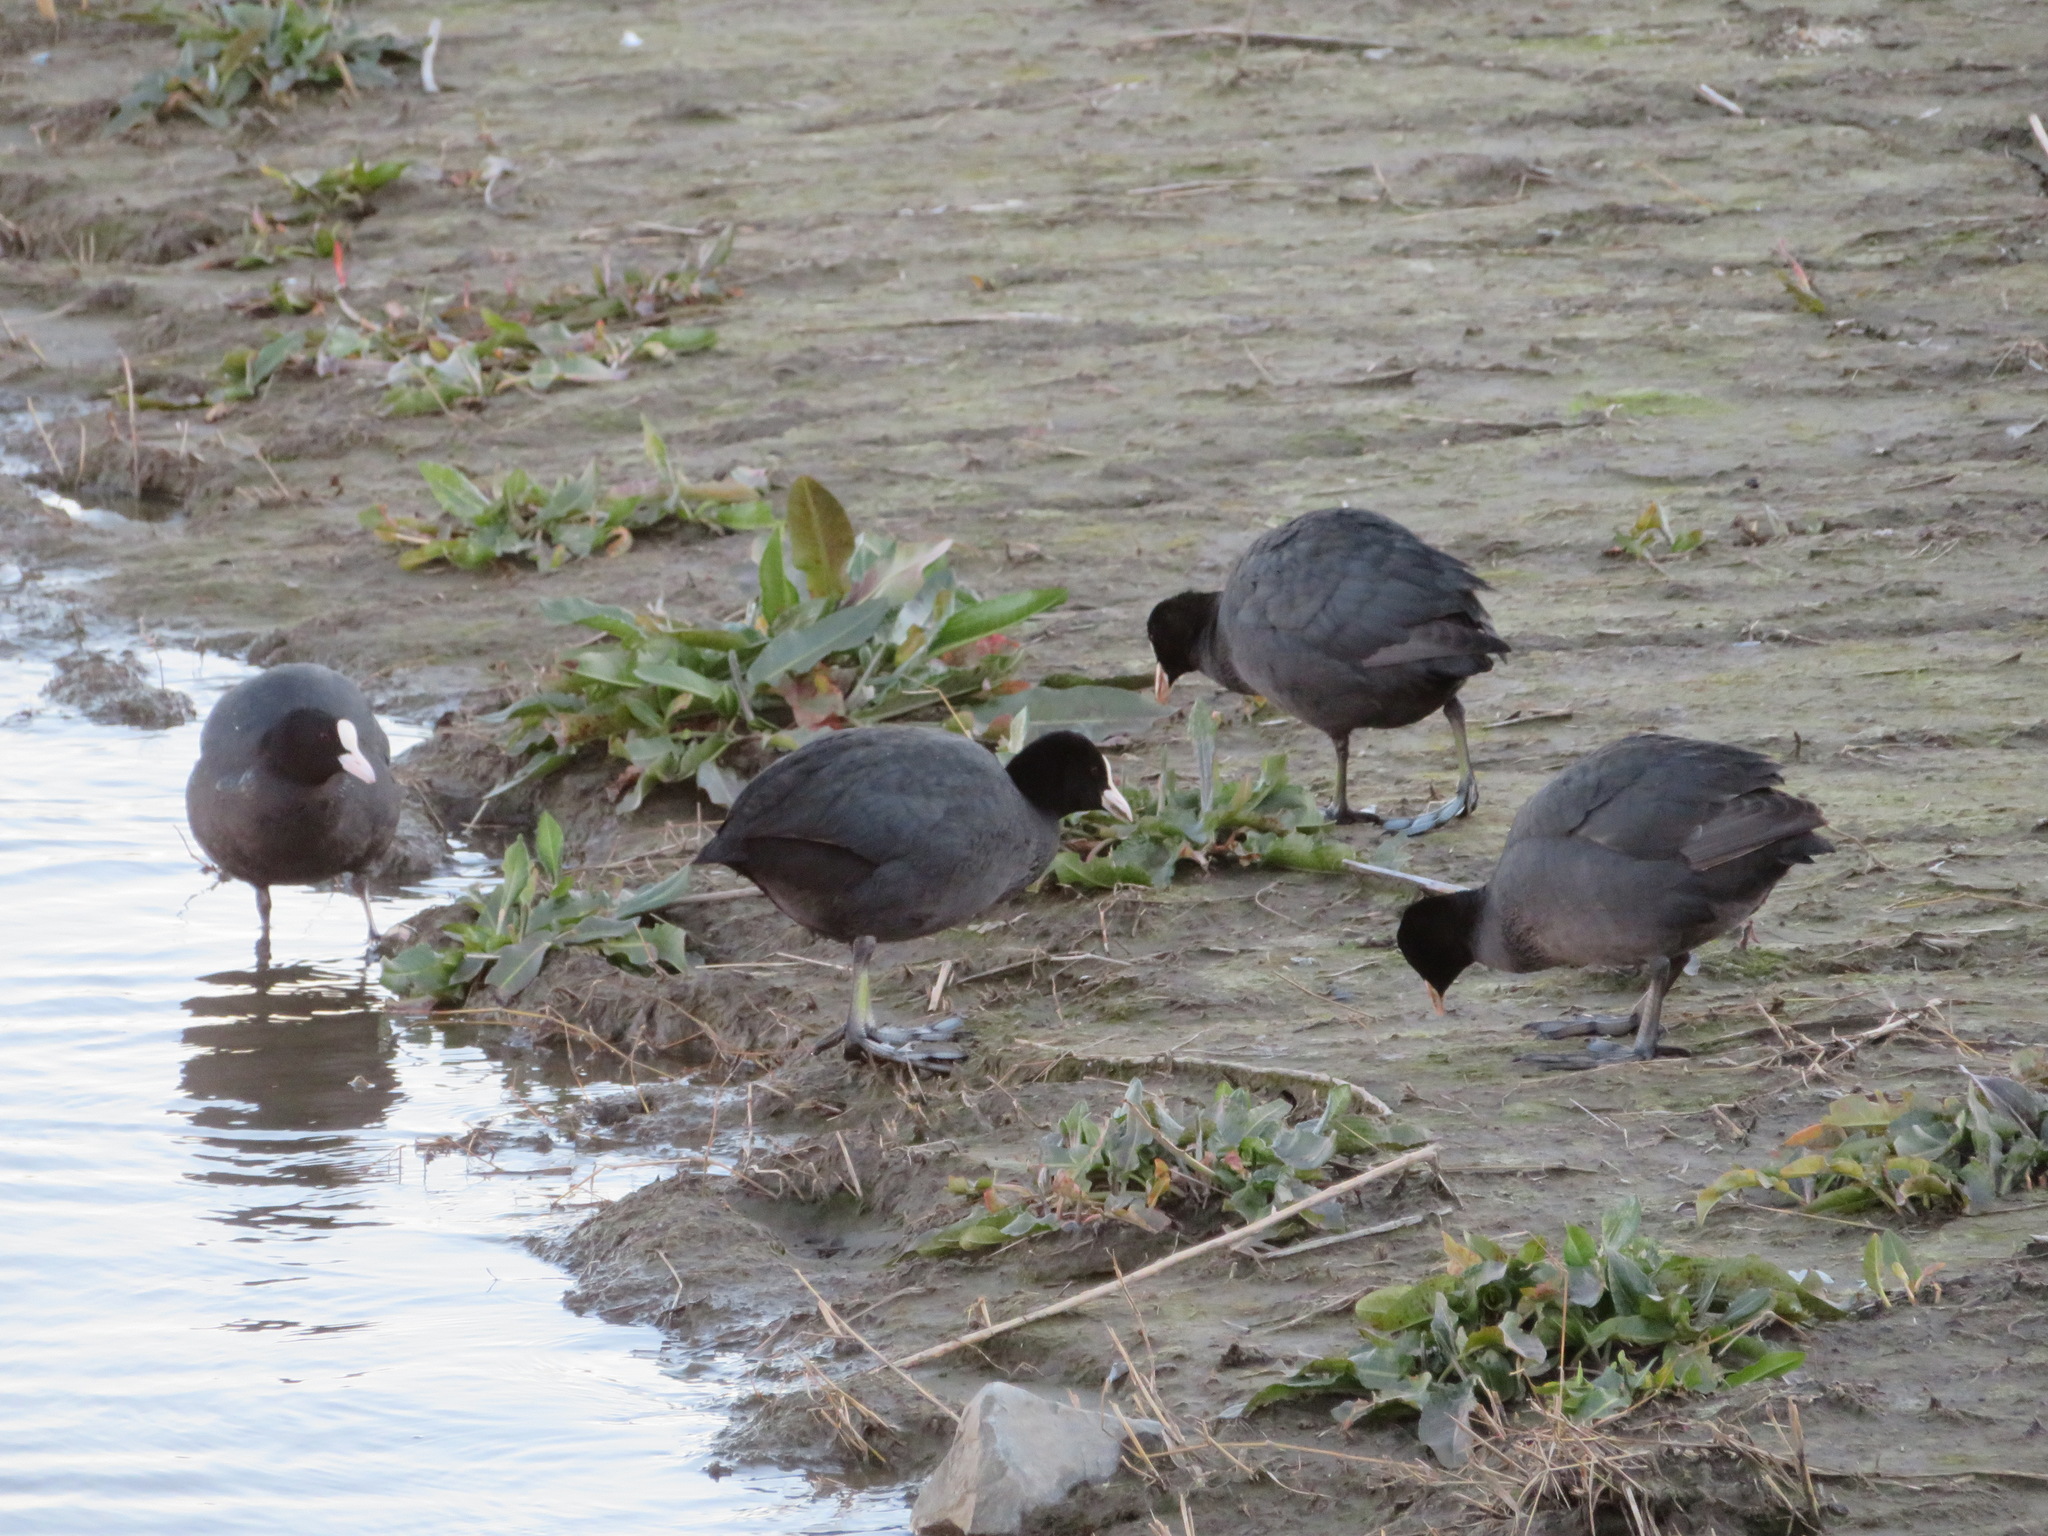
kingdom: Animalia
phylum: Chordata
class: Aves
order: Gruiformes
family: Rallidae
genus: Fulica
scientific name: Fulica atra
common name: Eurasian coot
